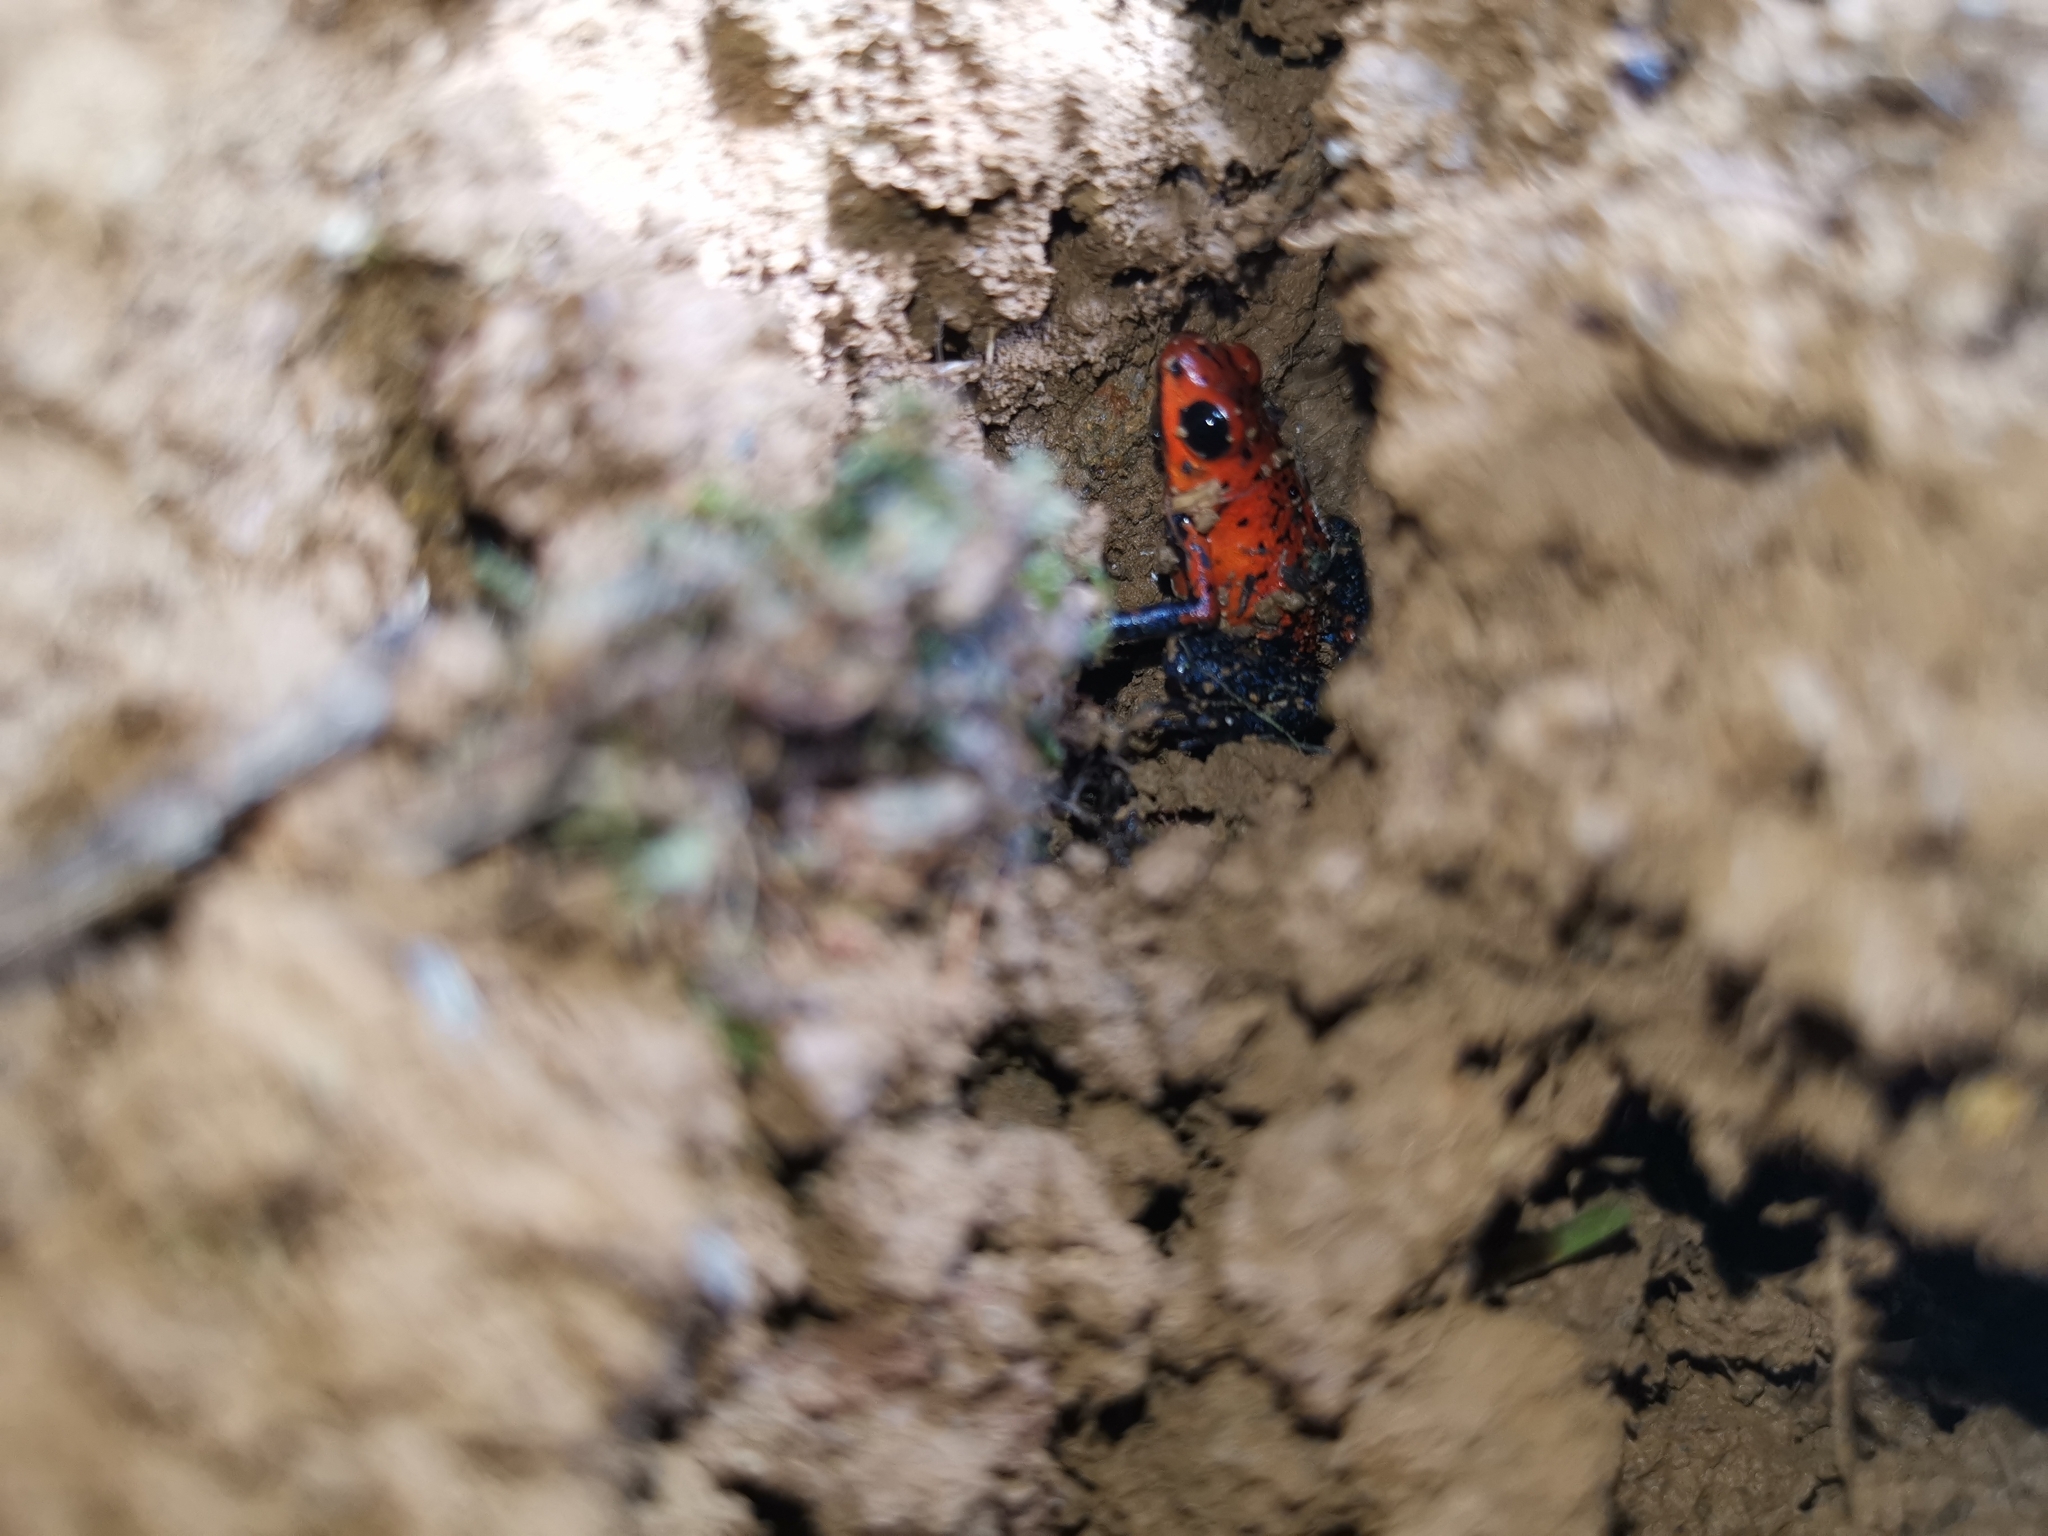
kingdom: Animalia
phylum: Chordata
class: Amphibia
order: Anura
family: Dendrobatidae
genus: Oophaga
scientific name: Oophaga pumilio
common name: Flaming poison frog
